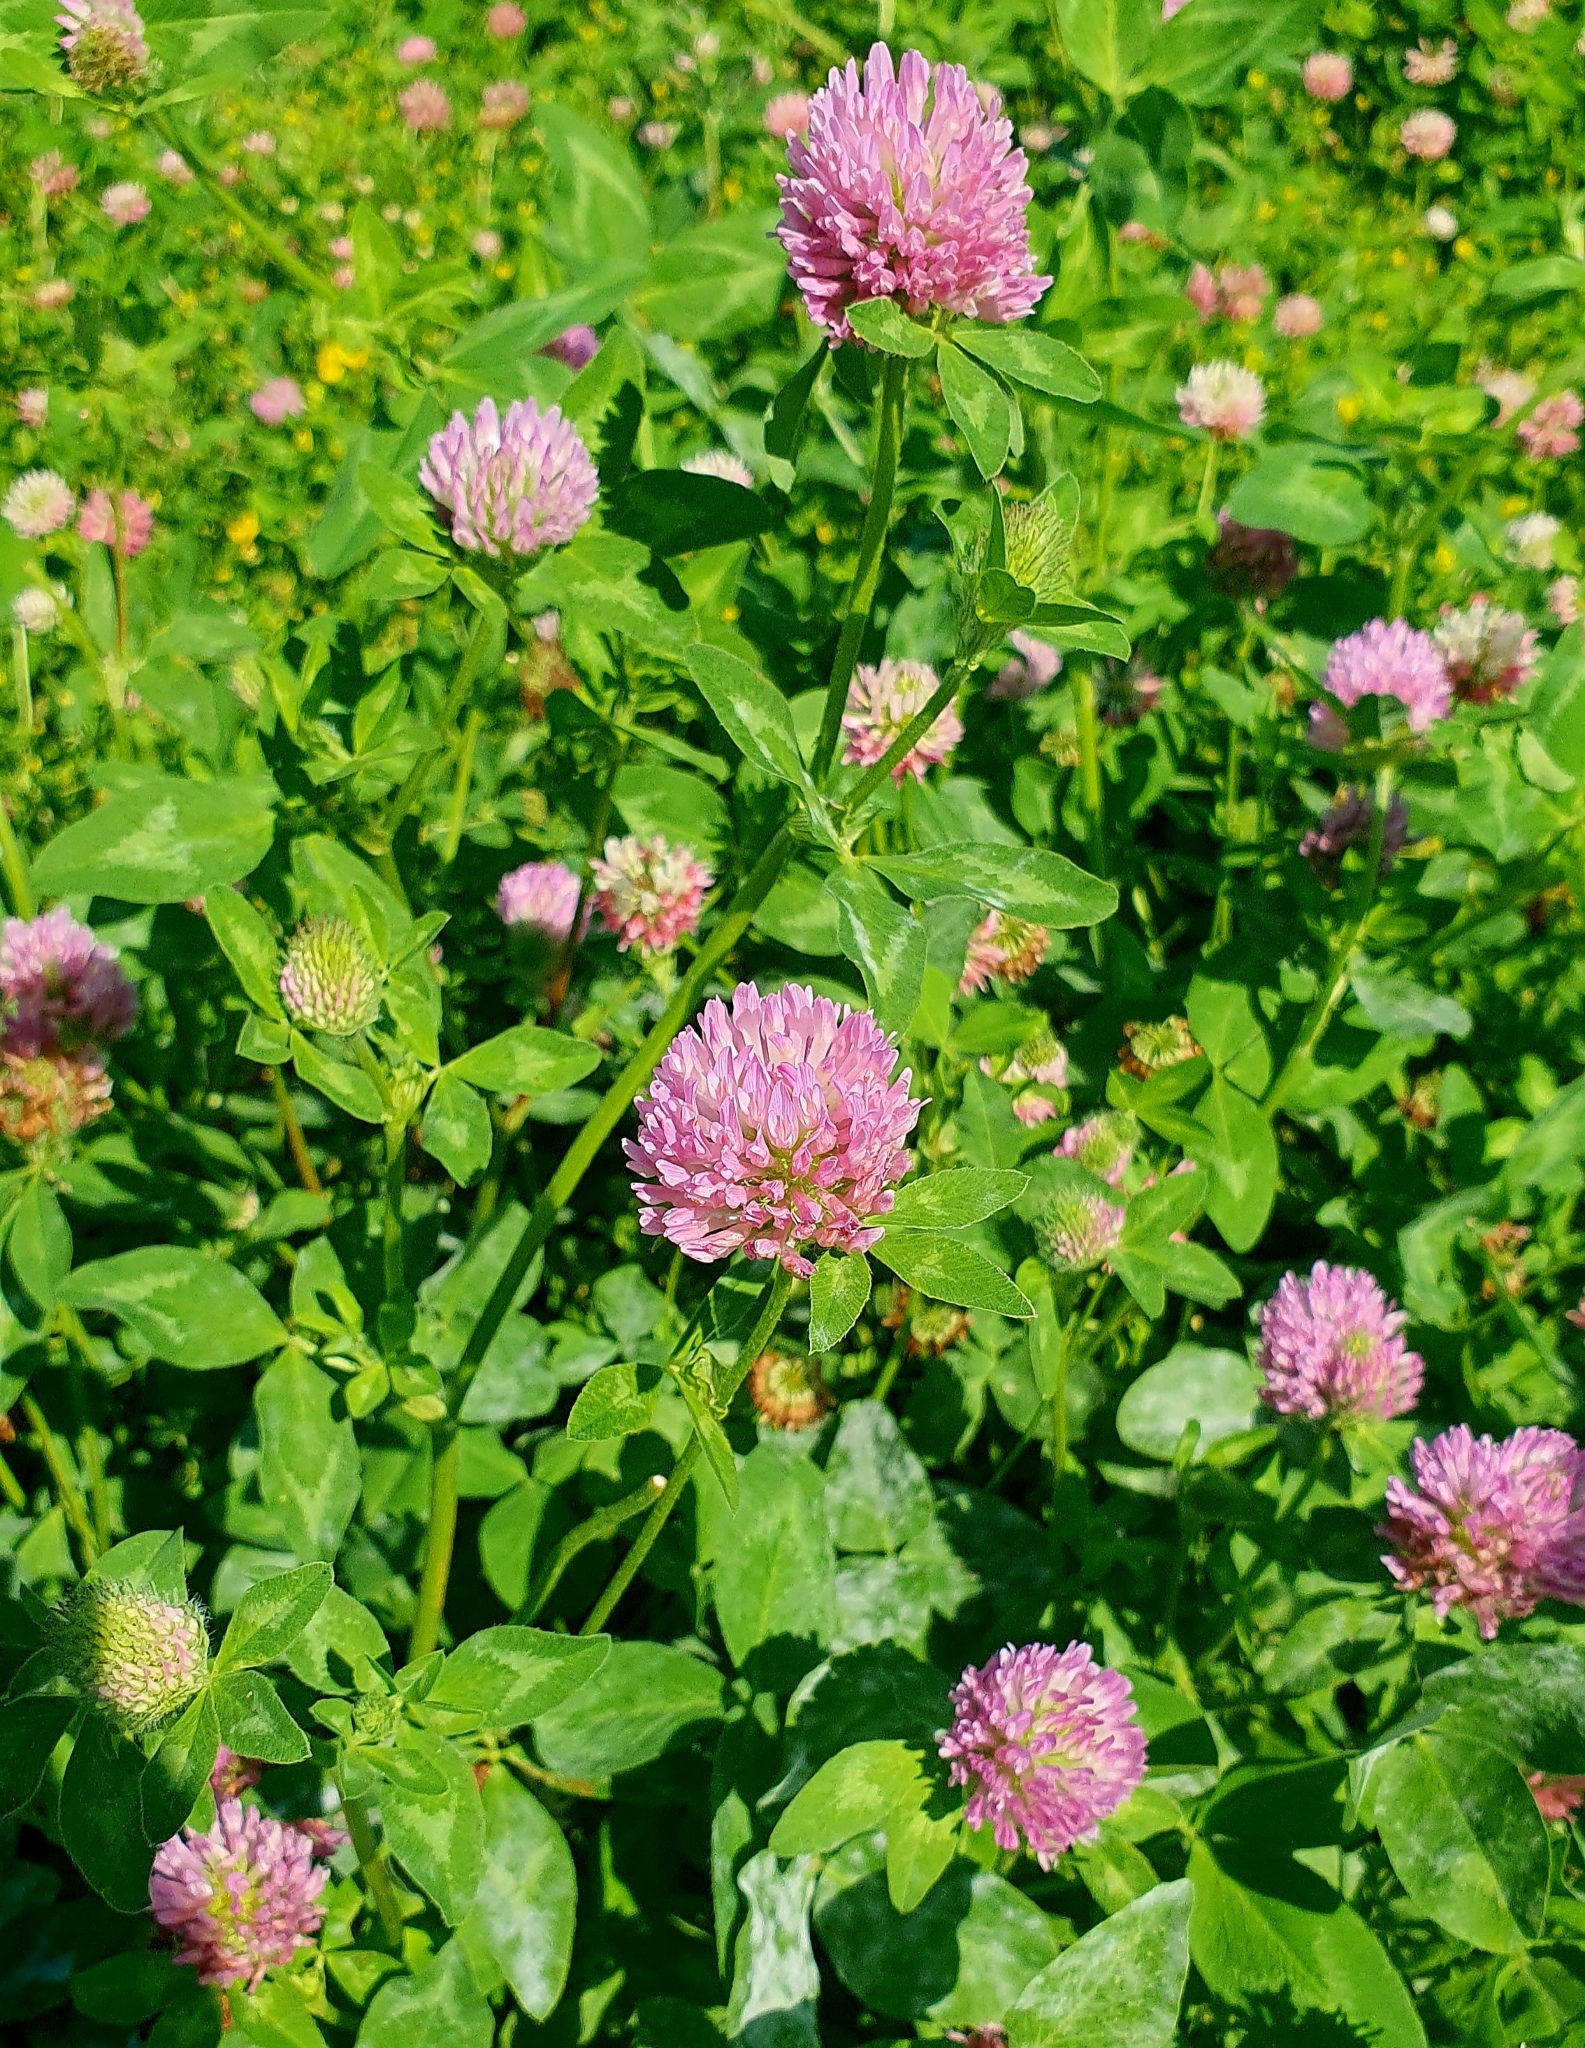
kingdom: Plantae
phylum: Tracheophyta
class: Magnoliopsida
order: Fabales
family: Fabaceae
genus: Trifolium
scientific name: Trifolium pratense
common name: Red clover
